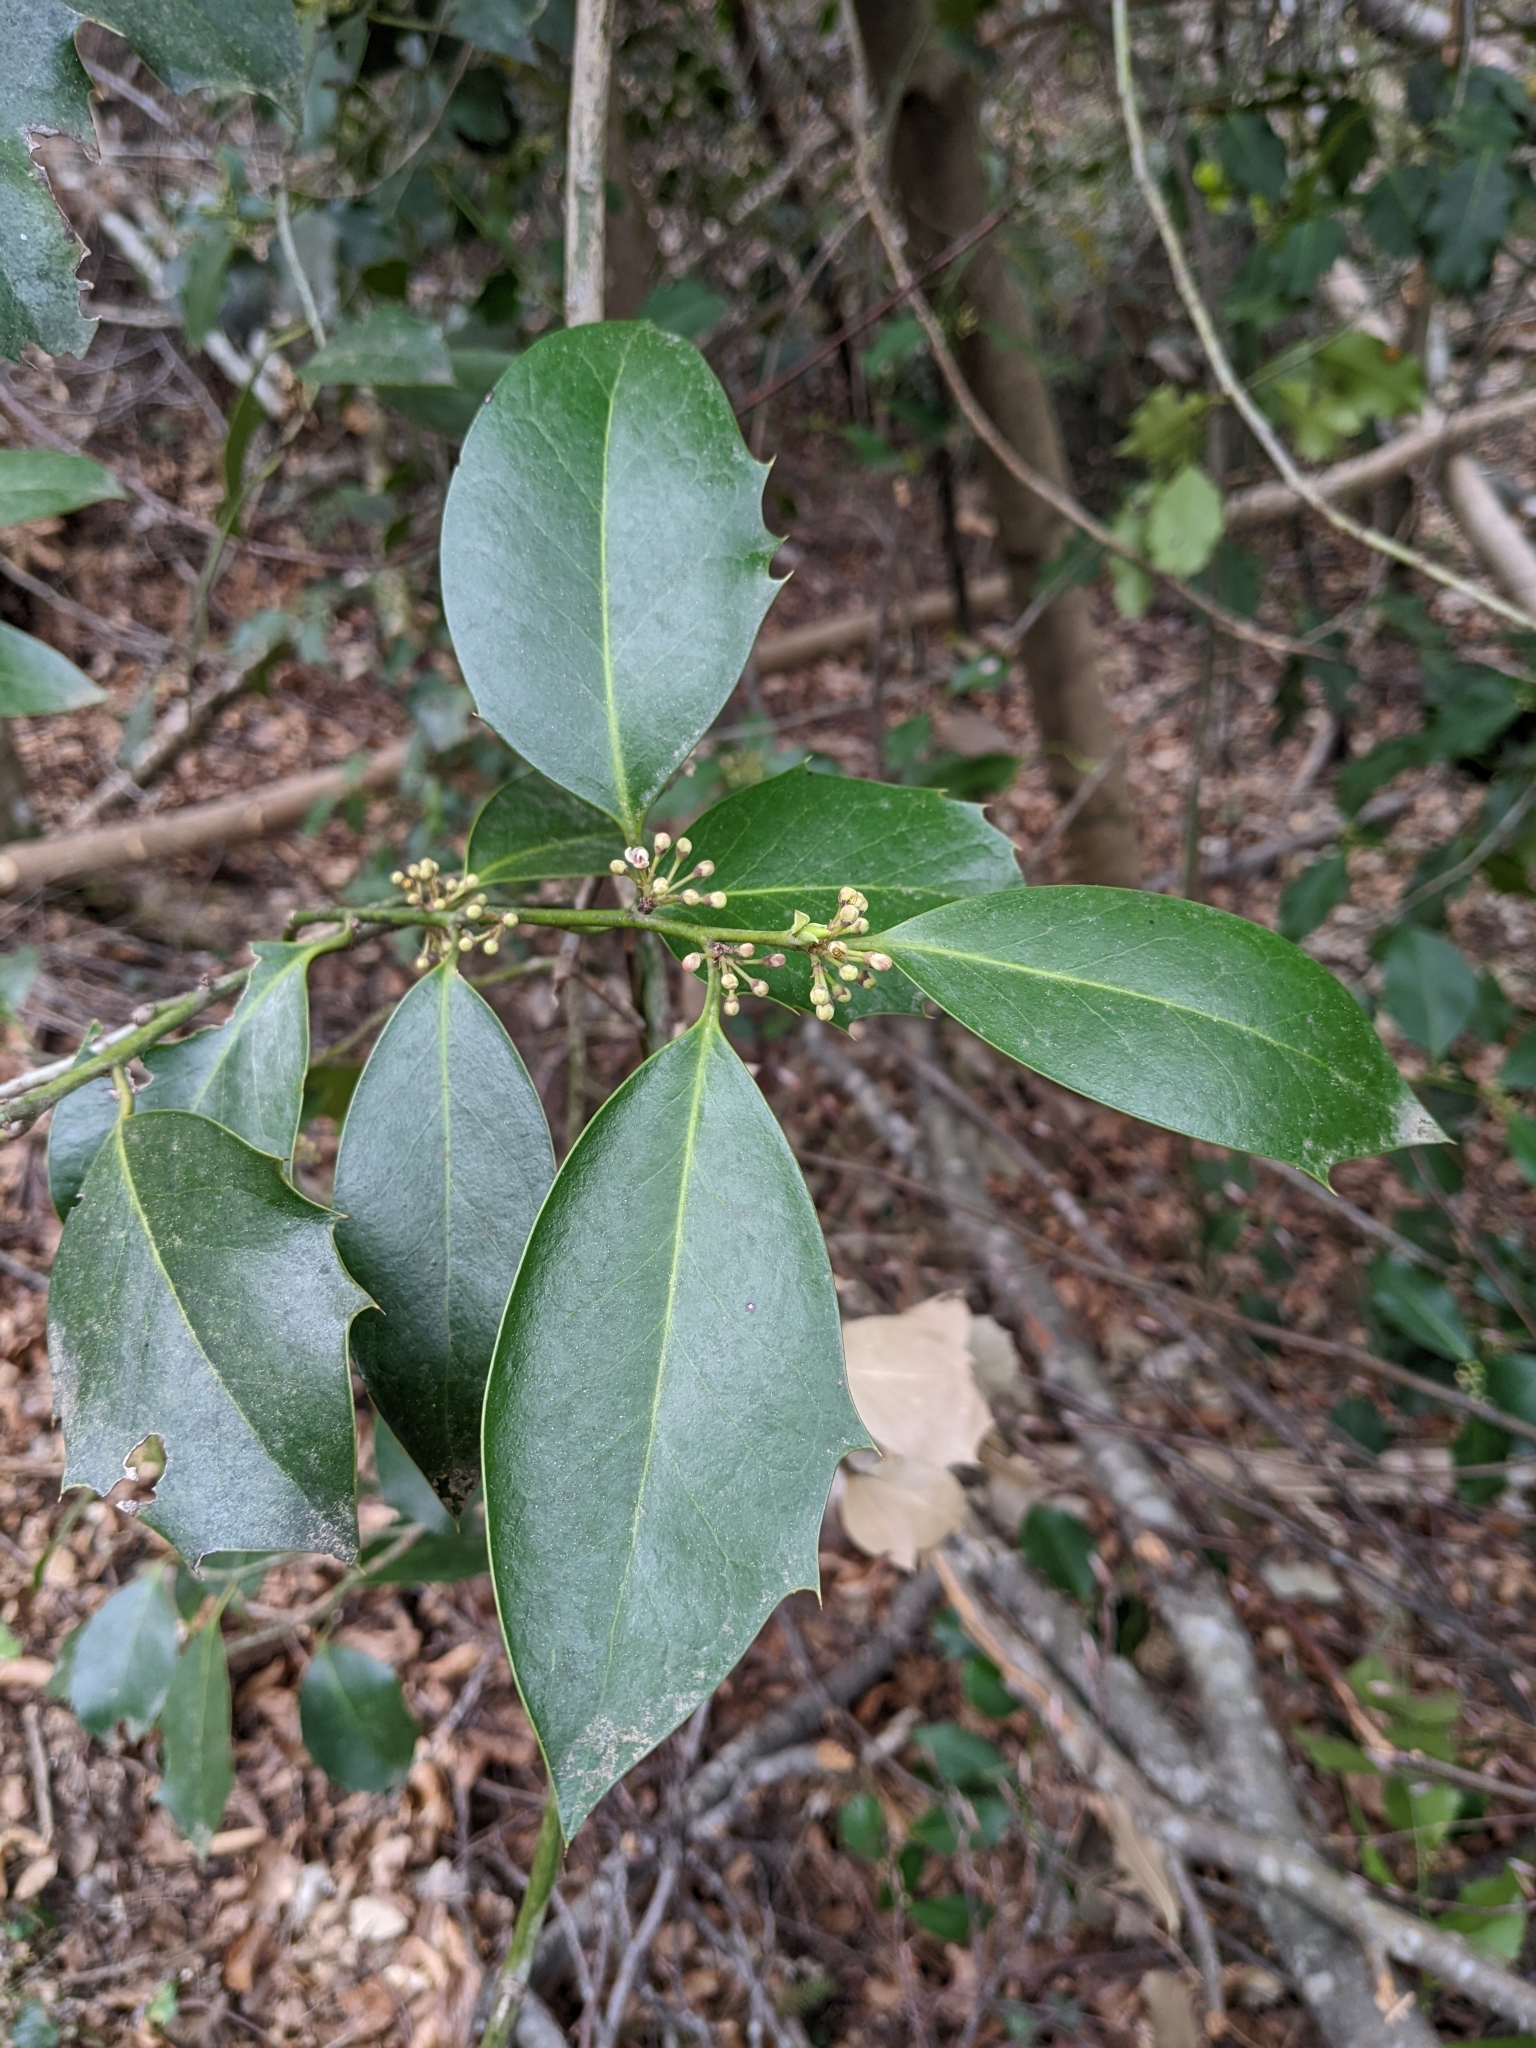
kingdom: Plantae
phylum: Tracheophyta
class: Magnoliopsida
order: Aquifoliales
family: Aquifoliaceae
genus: Ilex
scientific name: Ilex aquifolium
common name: English holly
